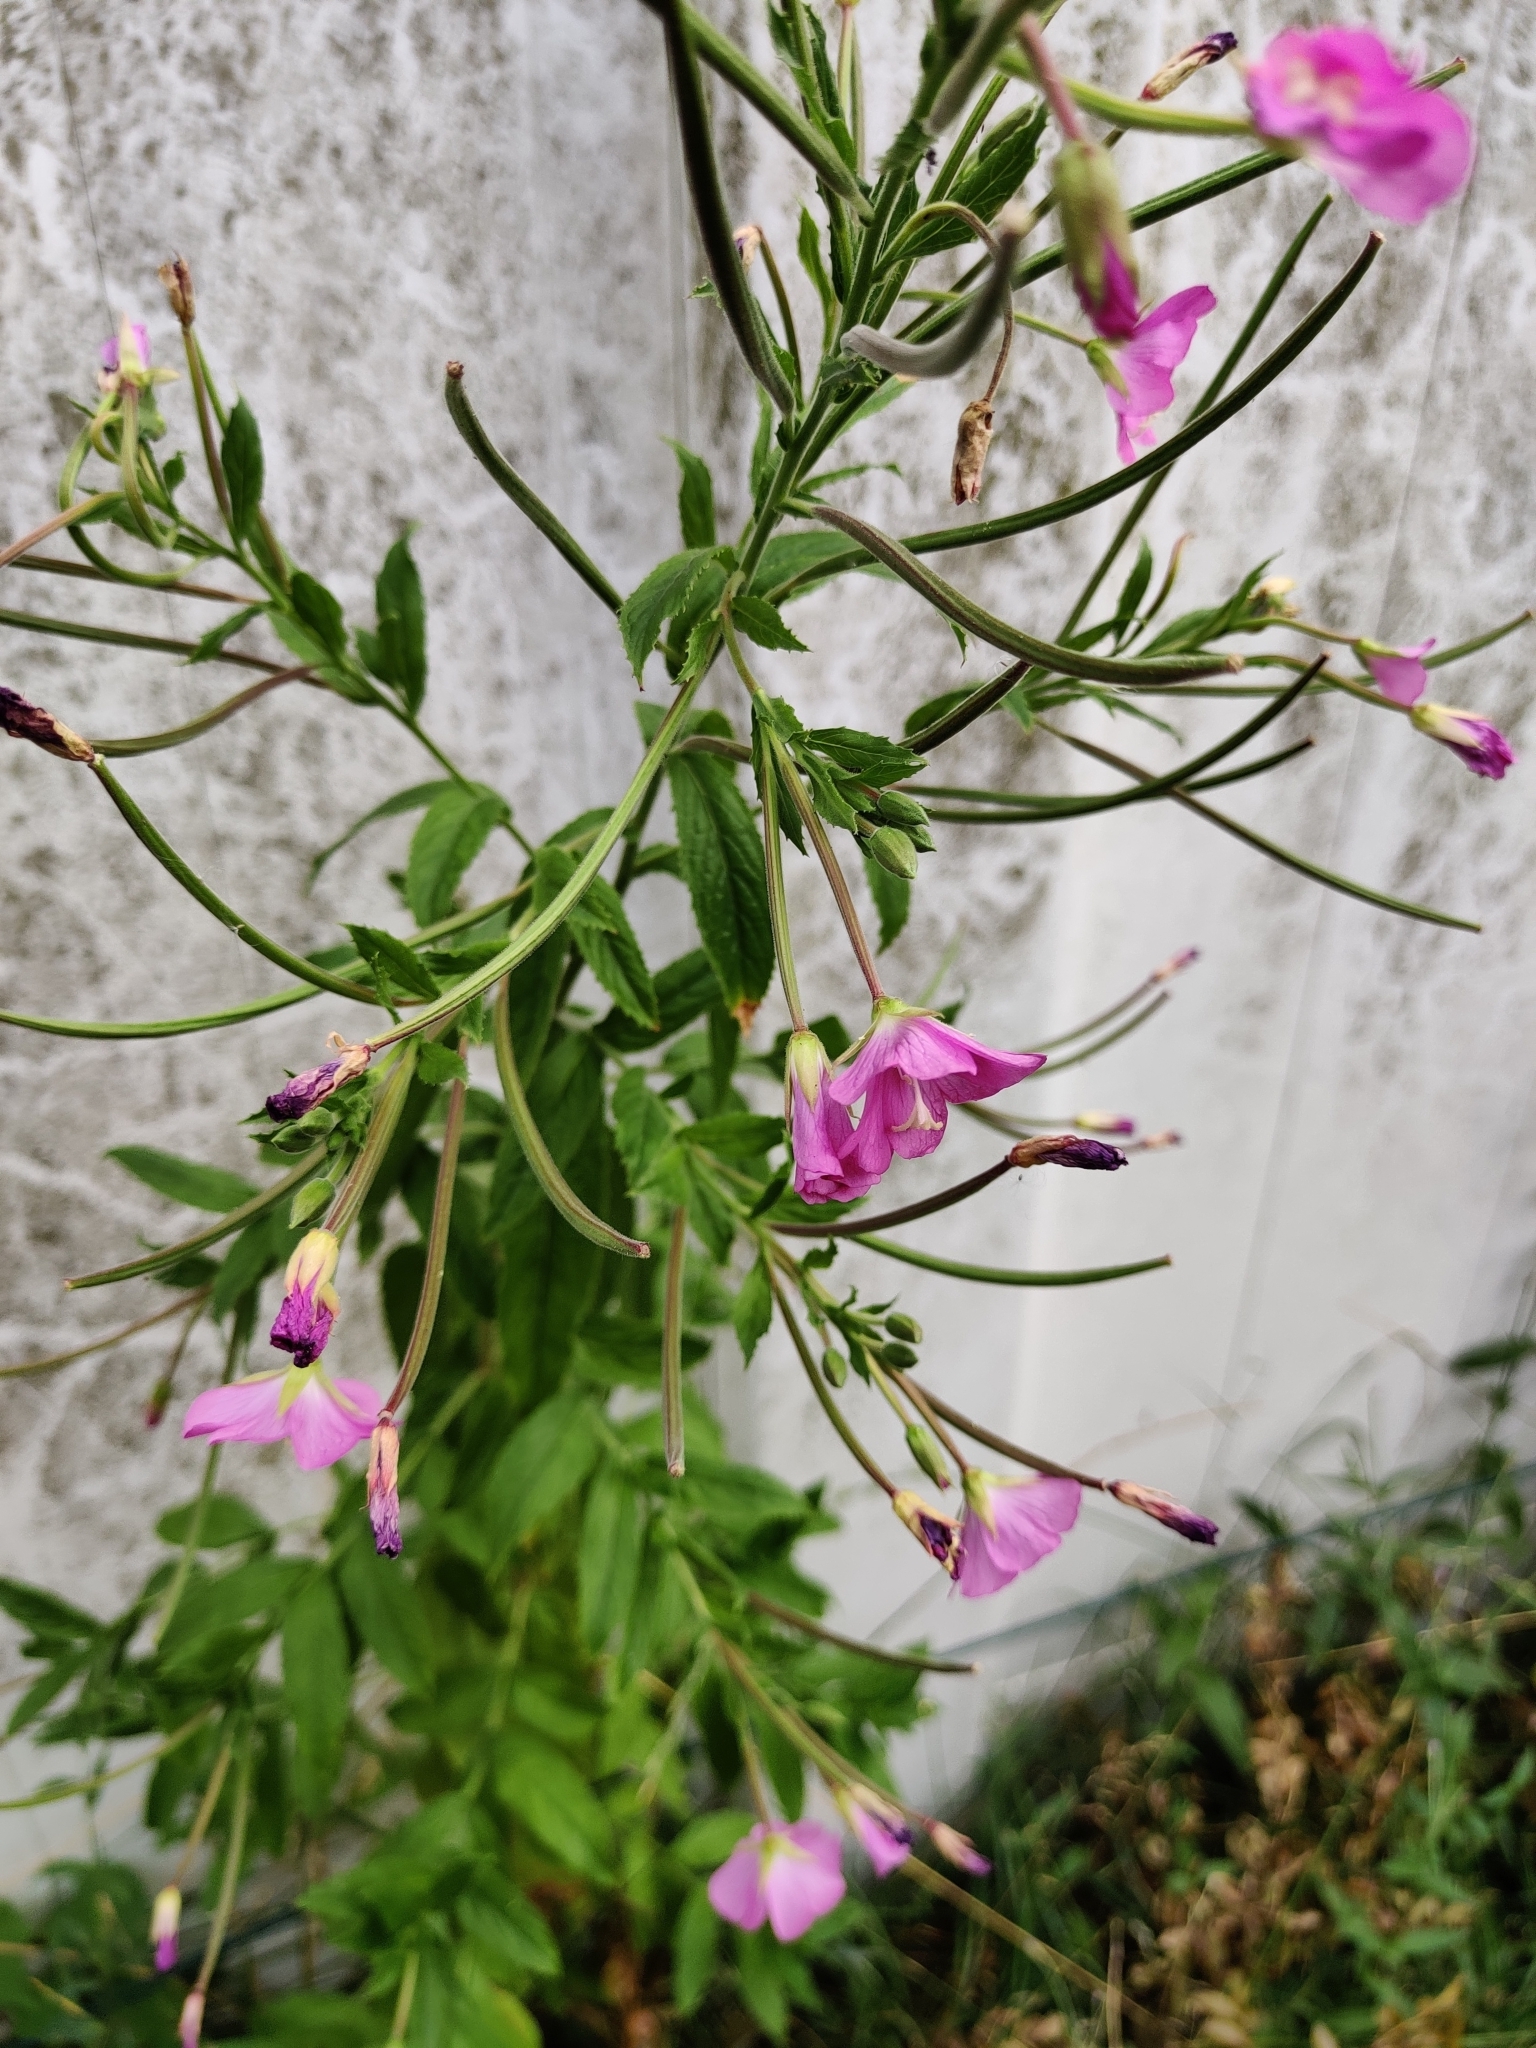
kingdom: Plantae
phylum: Tracheophyta
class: Magnoliopsida
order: Myrtales
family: Onagraceae
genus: Epilobium
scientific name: Epilobium hirsutum
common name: Great willowherb
